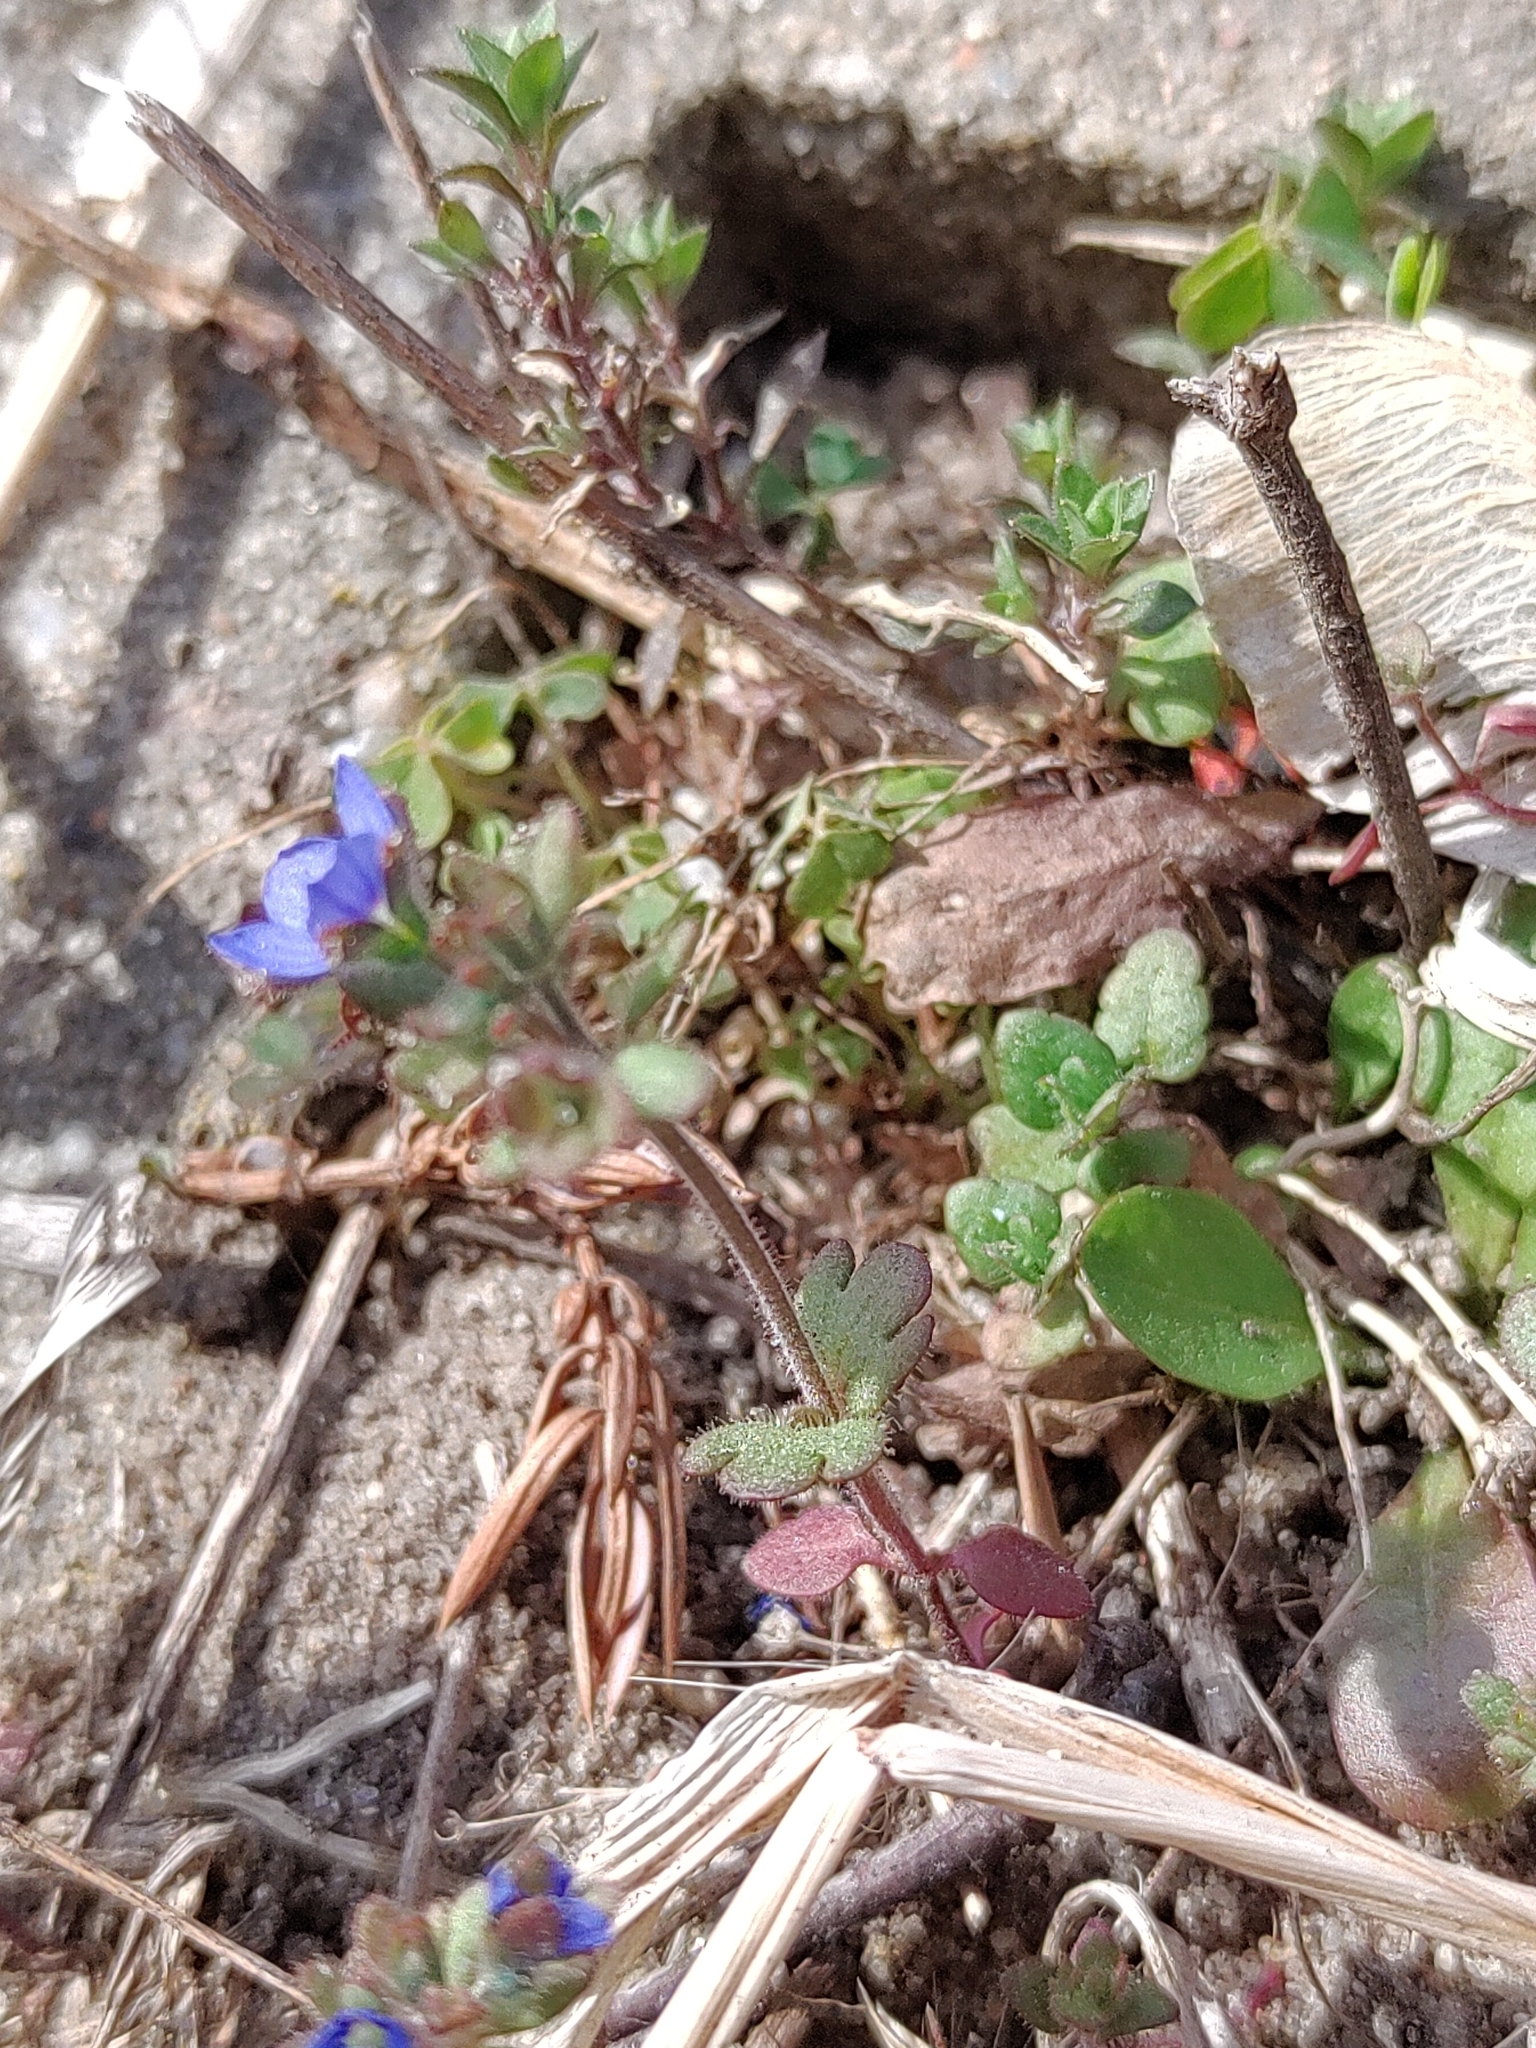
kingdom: Plantae
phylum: Tracheophyta
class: Magnoliopsida
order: Lamiales
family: Plantaginaceae
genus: Veronica
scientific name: Veronica triphyllos
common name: Fingered speedwell
